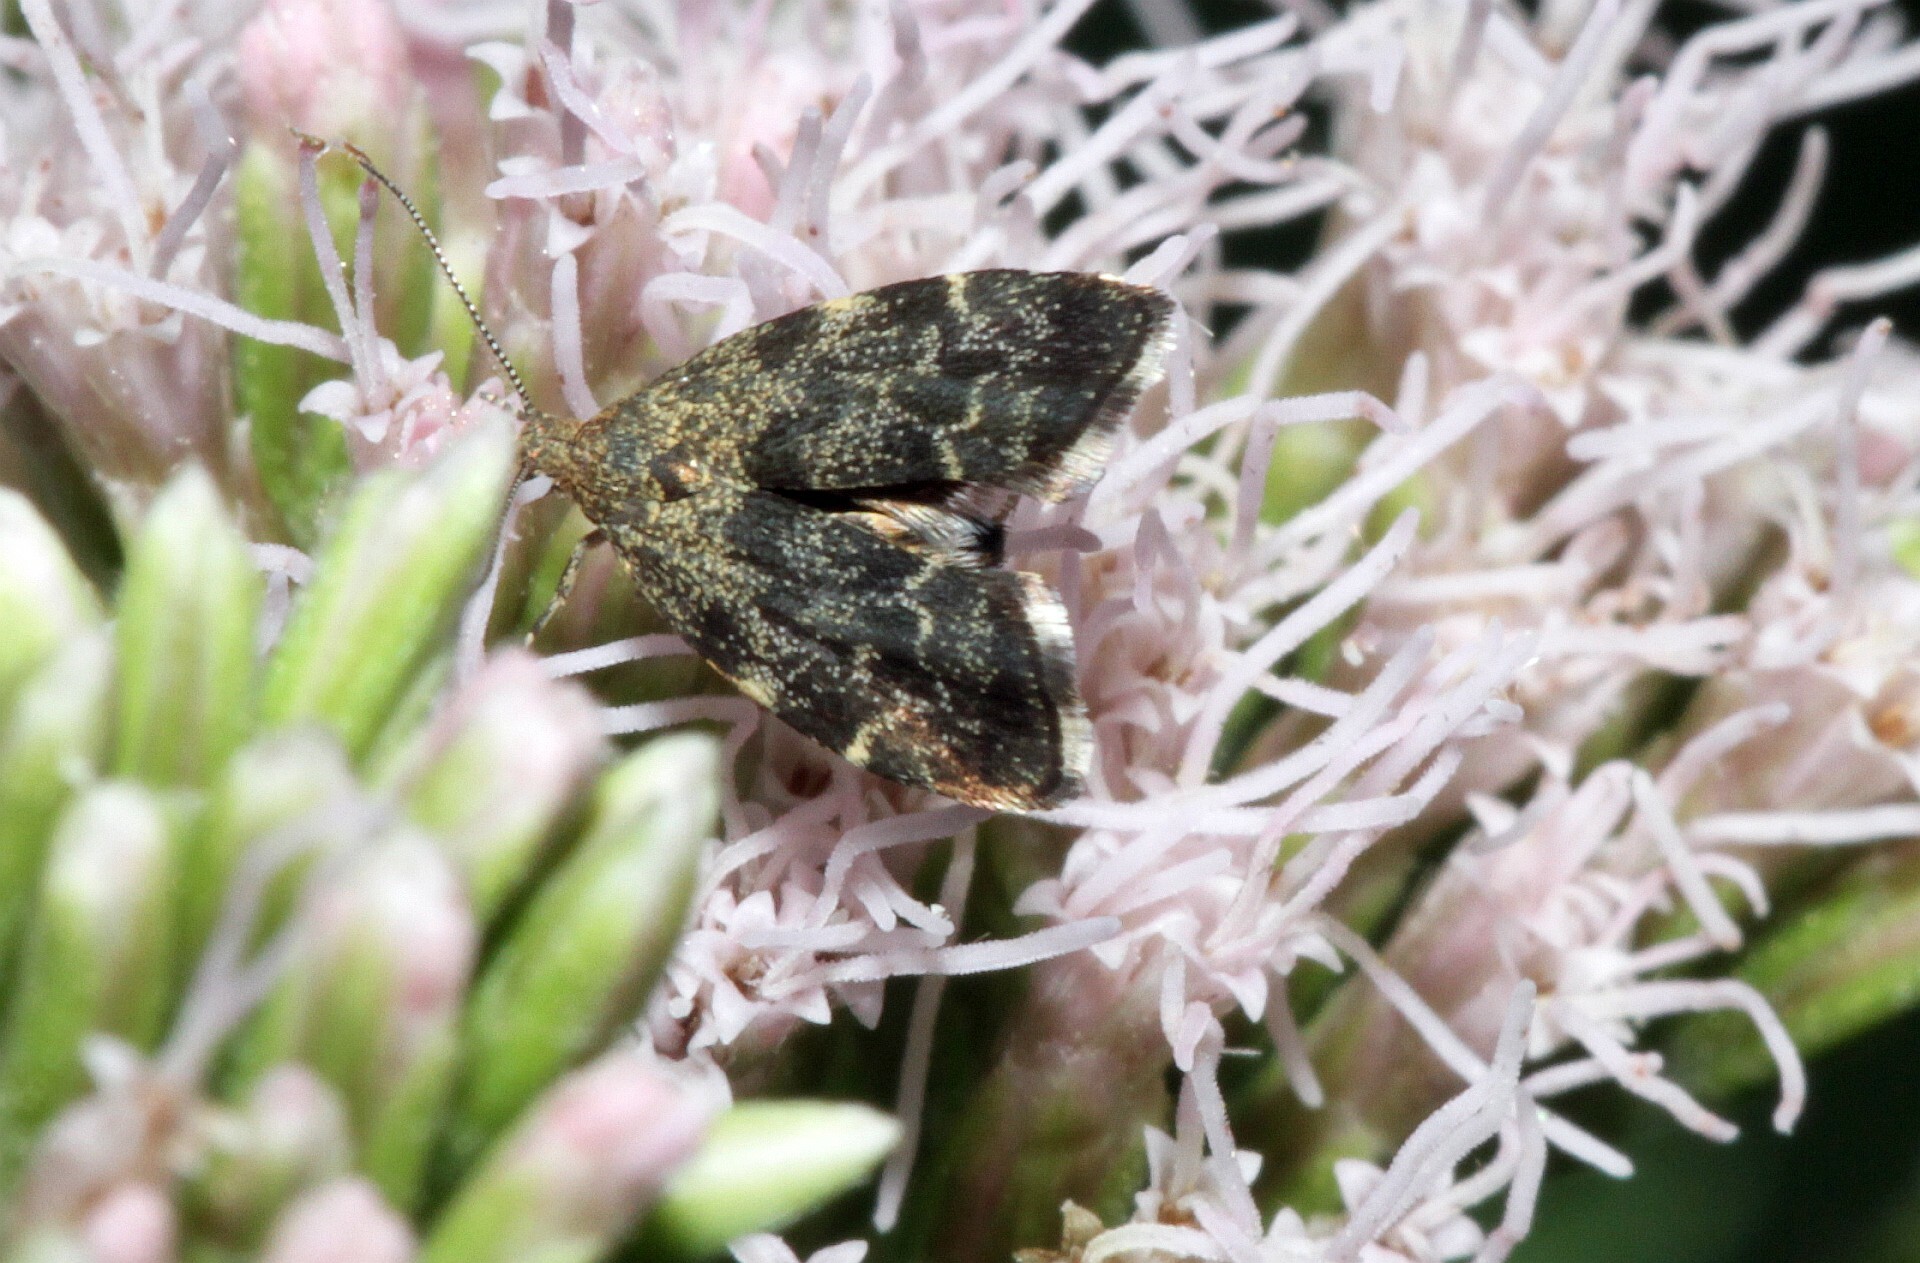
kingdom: Animalia
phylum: Arthropoda
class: Insecta
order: Lepidoptera
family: Choreutidae
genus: Anthophila
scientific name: Anthophila fabriciana
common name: Nettle-tap
